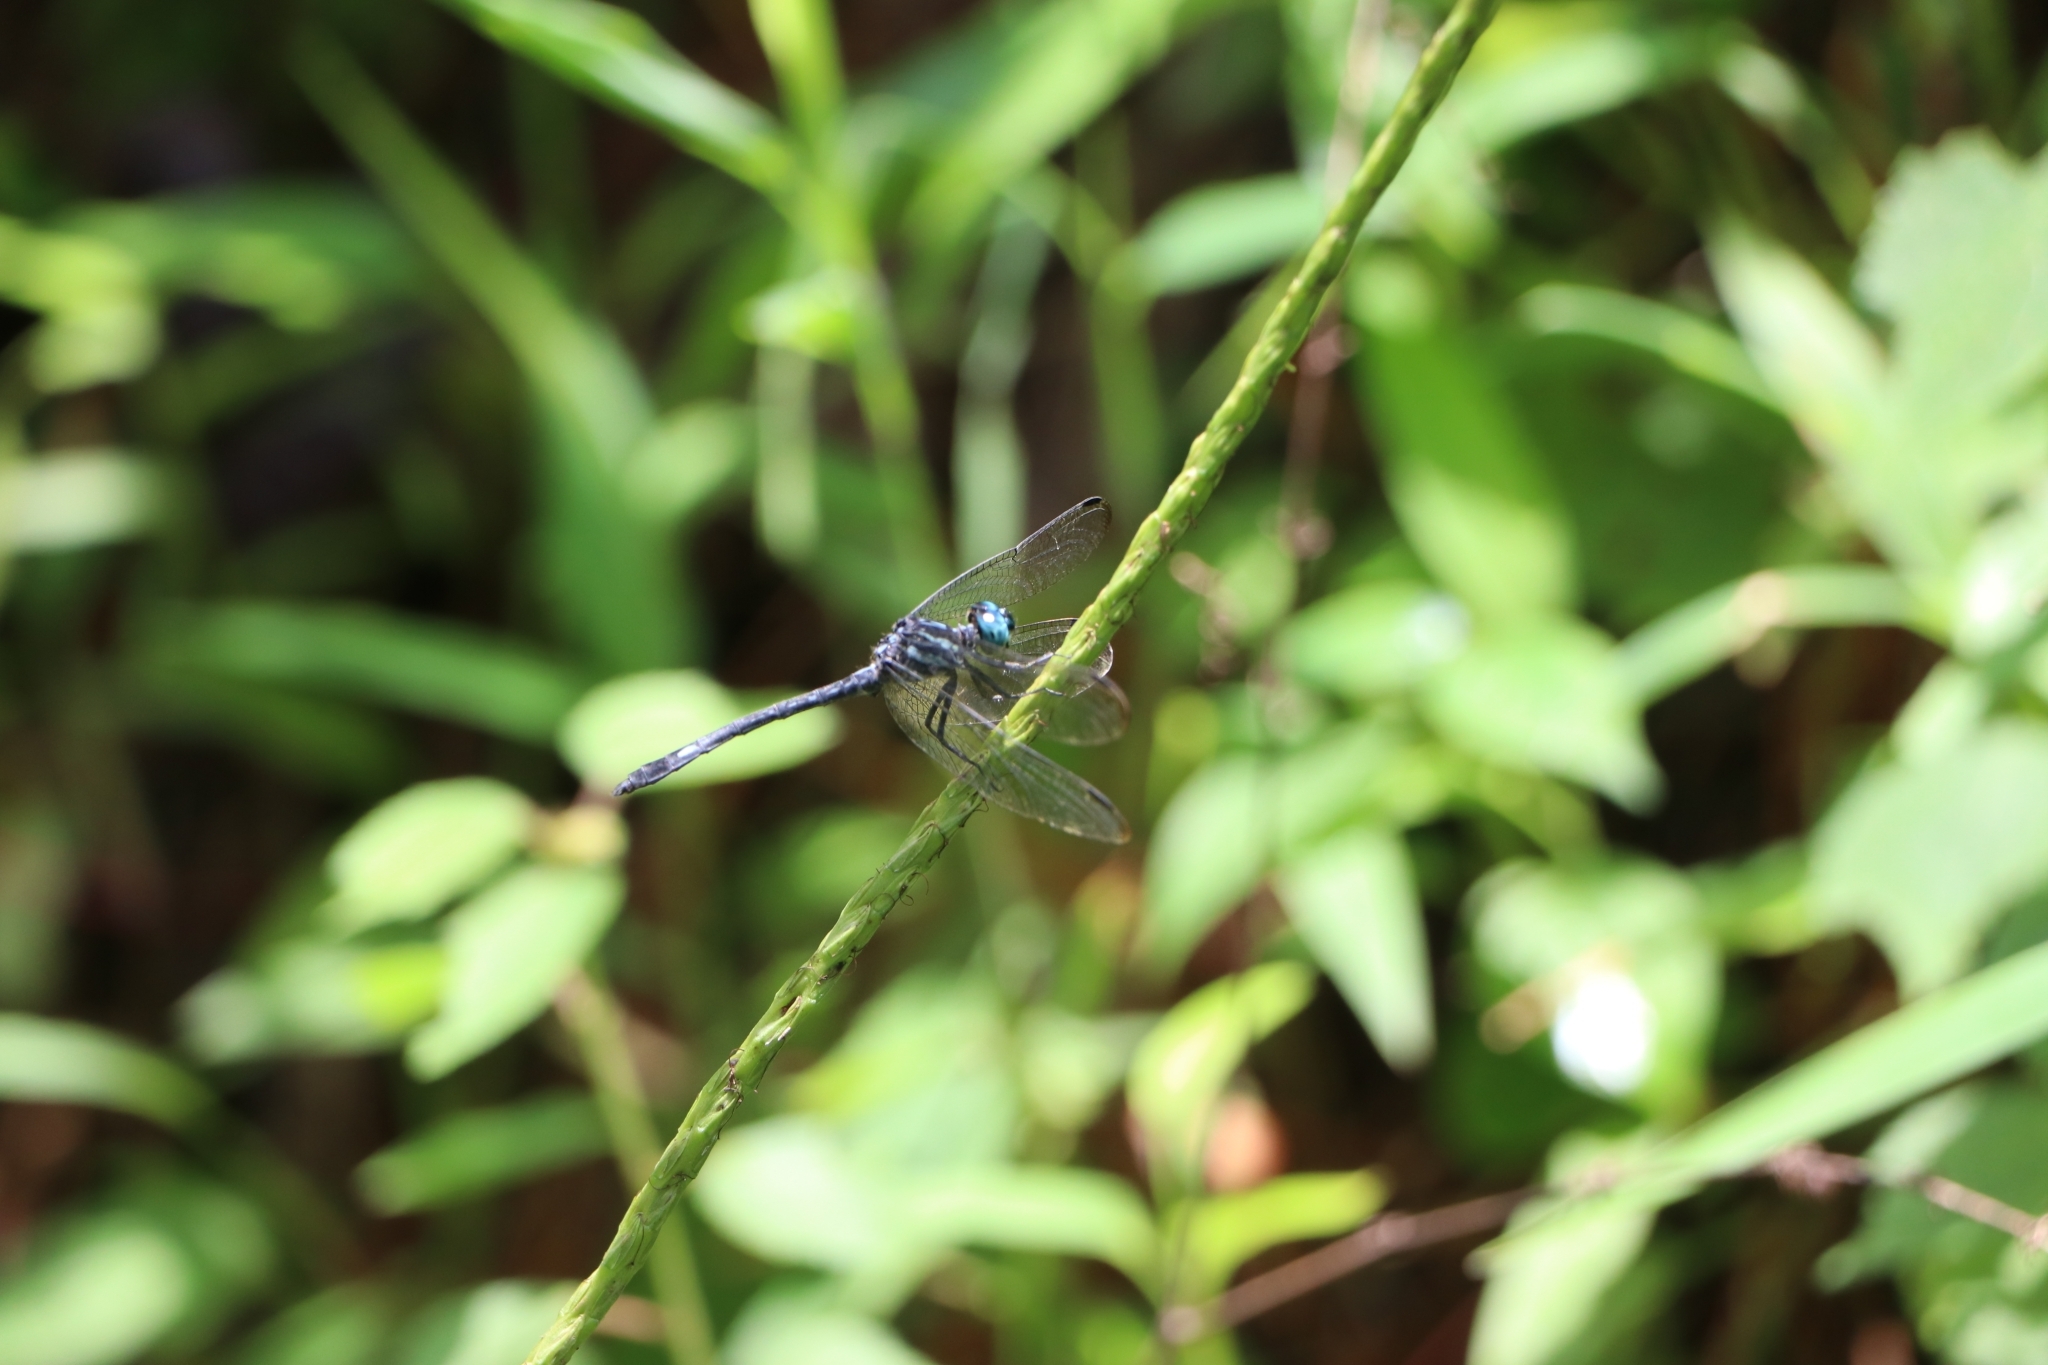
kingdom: Animalia
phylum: Arthropoda
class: Insecta
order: Odonata
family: Libellulidae
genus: Hylaeothemis
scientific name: Hylaeothemis apicalis
